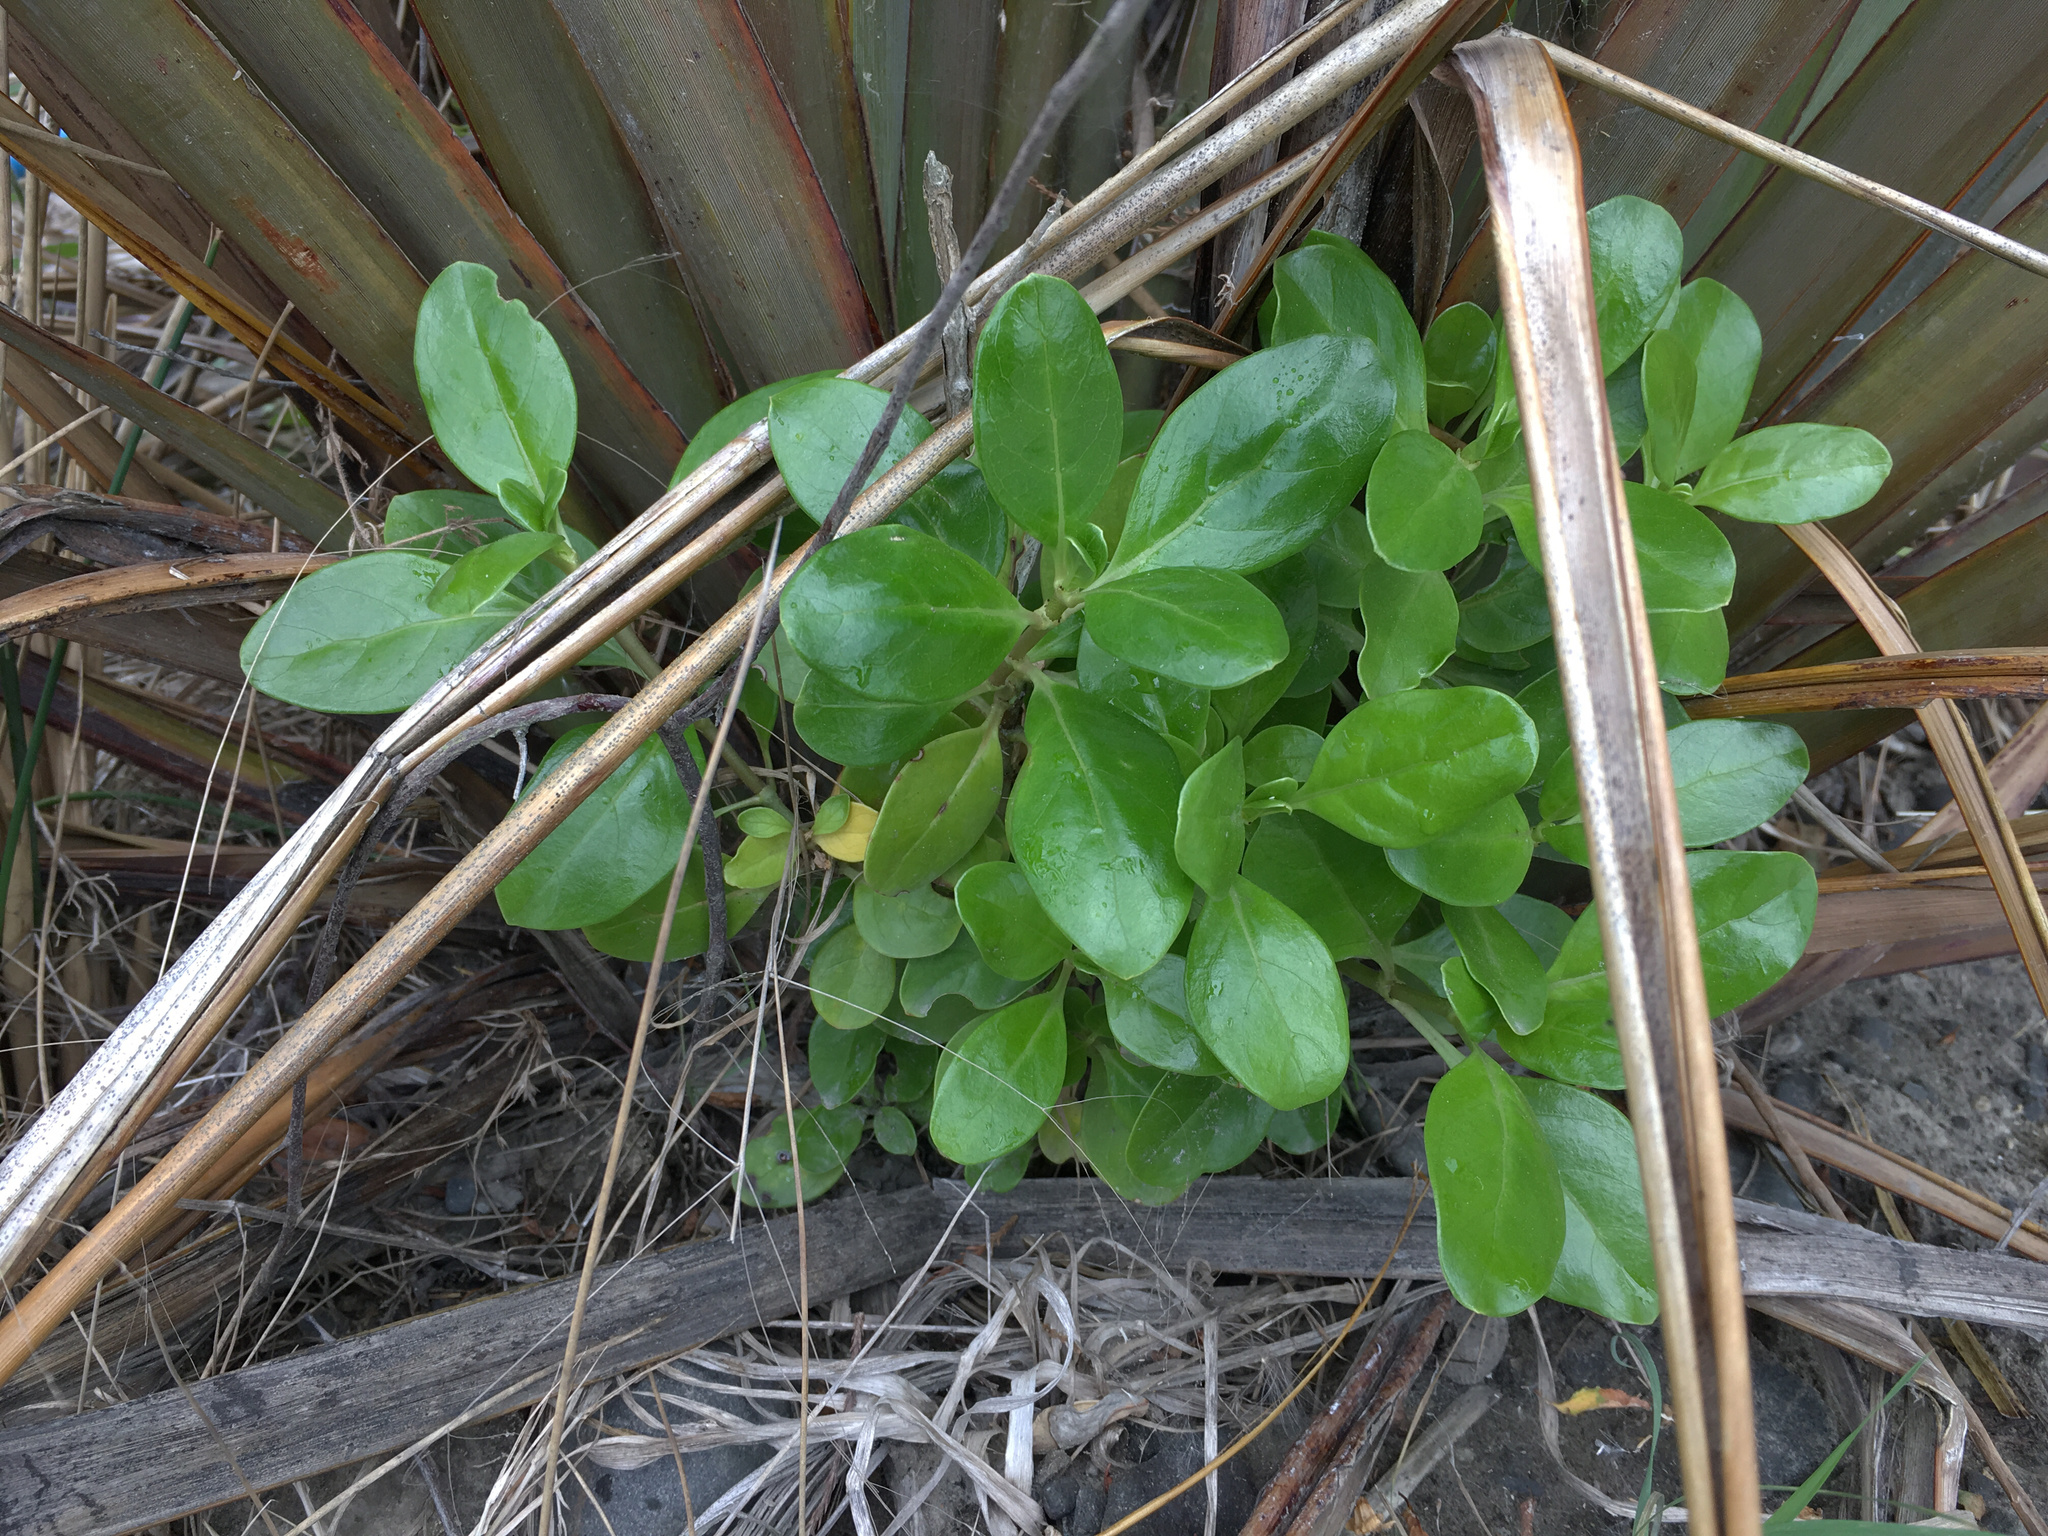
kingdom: Plantae
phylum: Tracheophyta
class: Magnoliopsida
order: Gentianales
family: Rubiaceae
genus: Coprosma
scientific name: Coprosma repens
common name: Tree bedstraw
